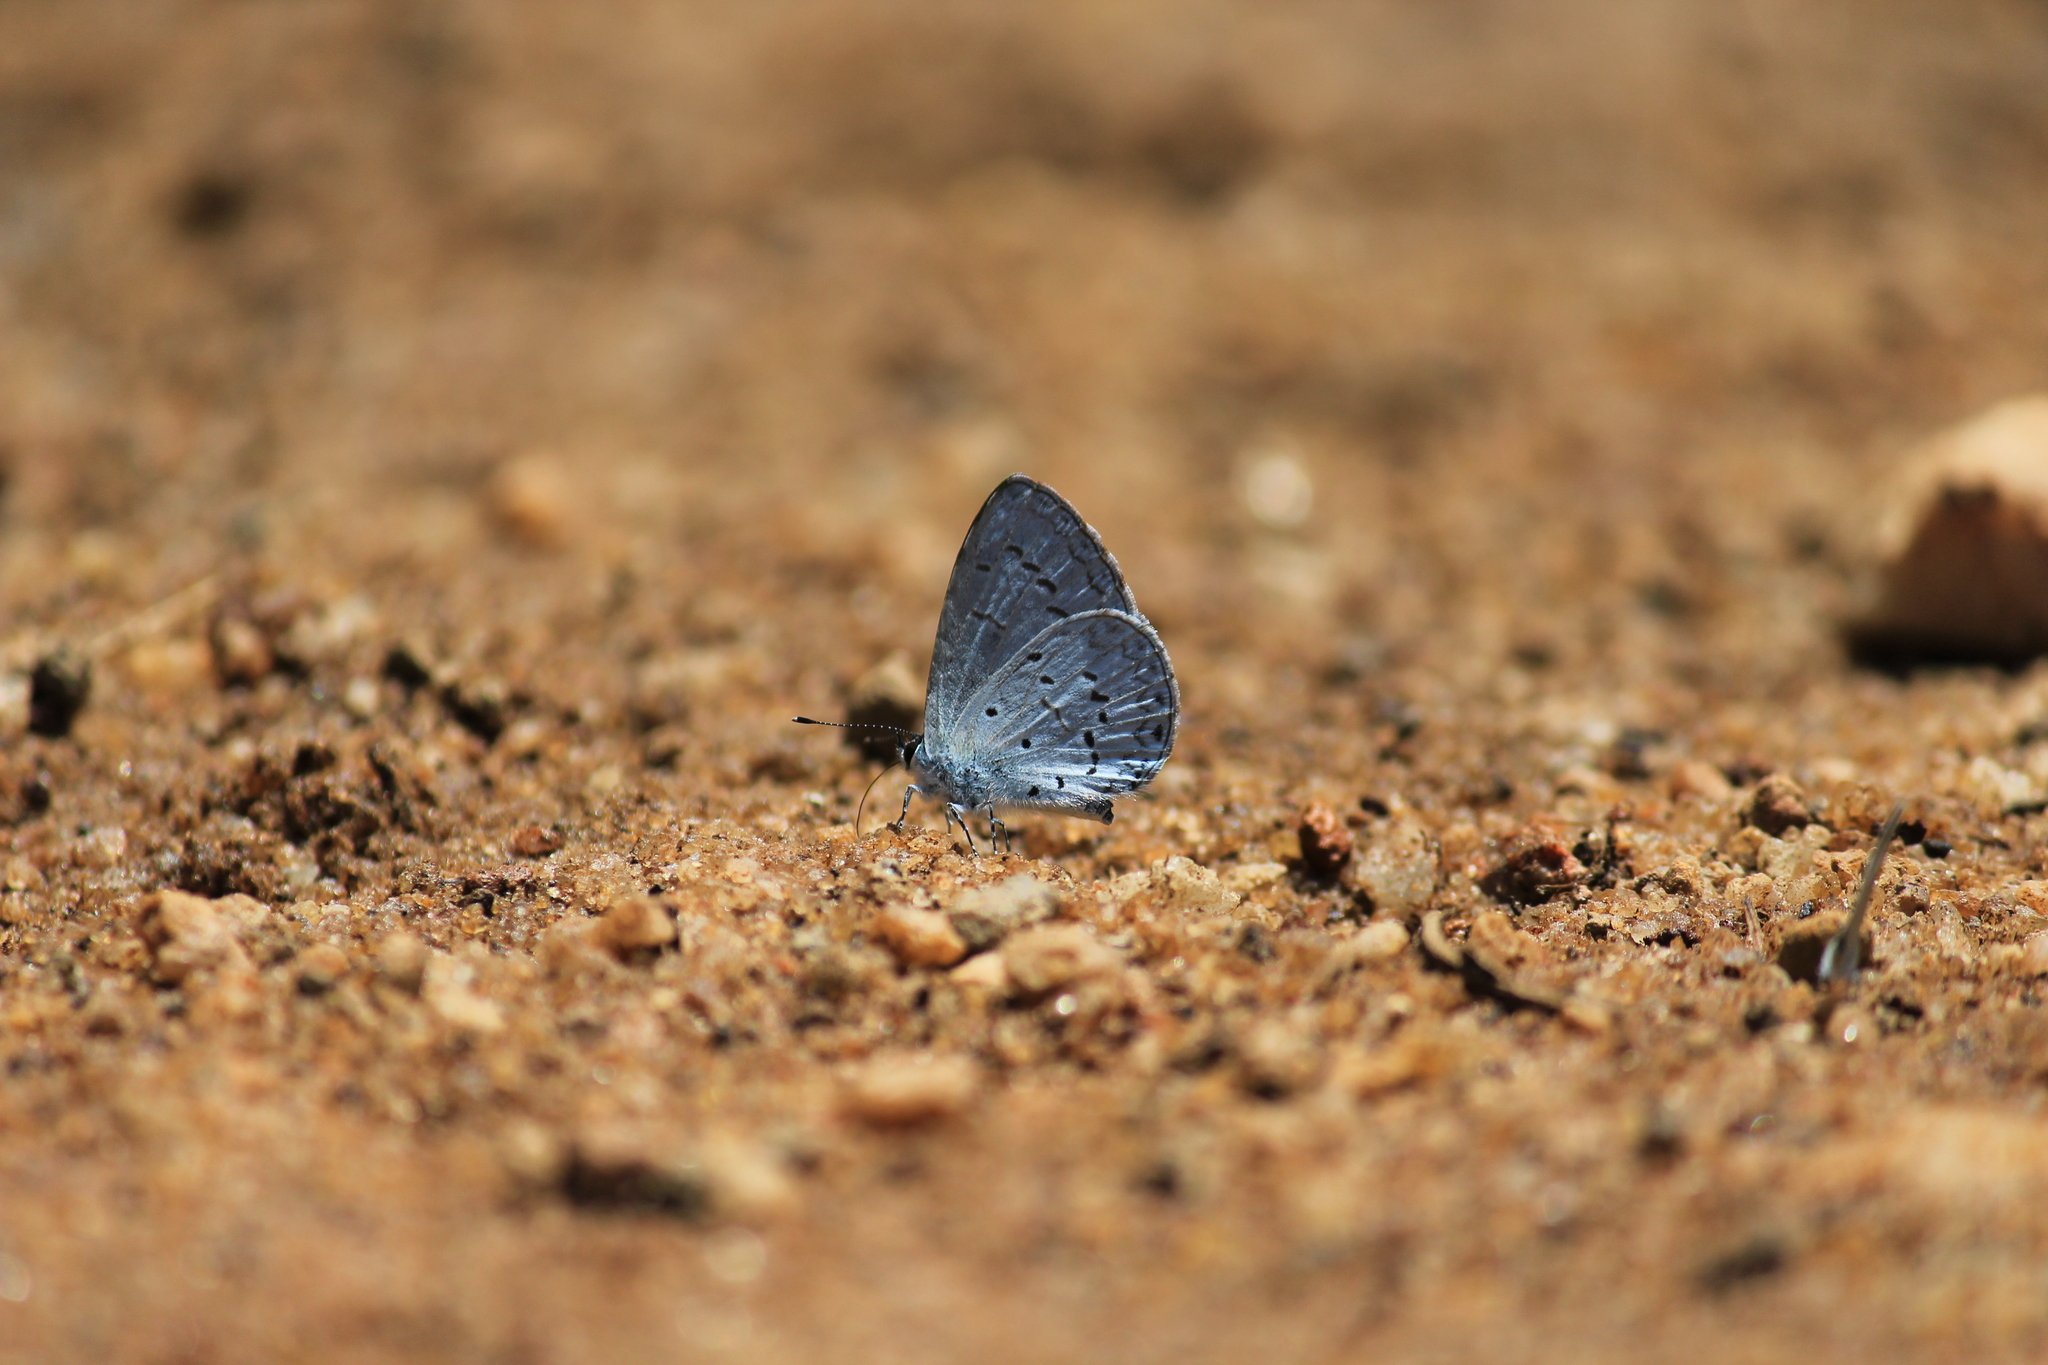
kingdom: Animalia
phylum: Arthropoda
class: Insecta
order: Lepidoptera
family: Lycaenidae
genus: Celastrina
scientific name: Celastrina lavendularis
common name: Plain hedge blue
